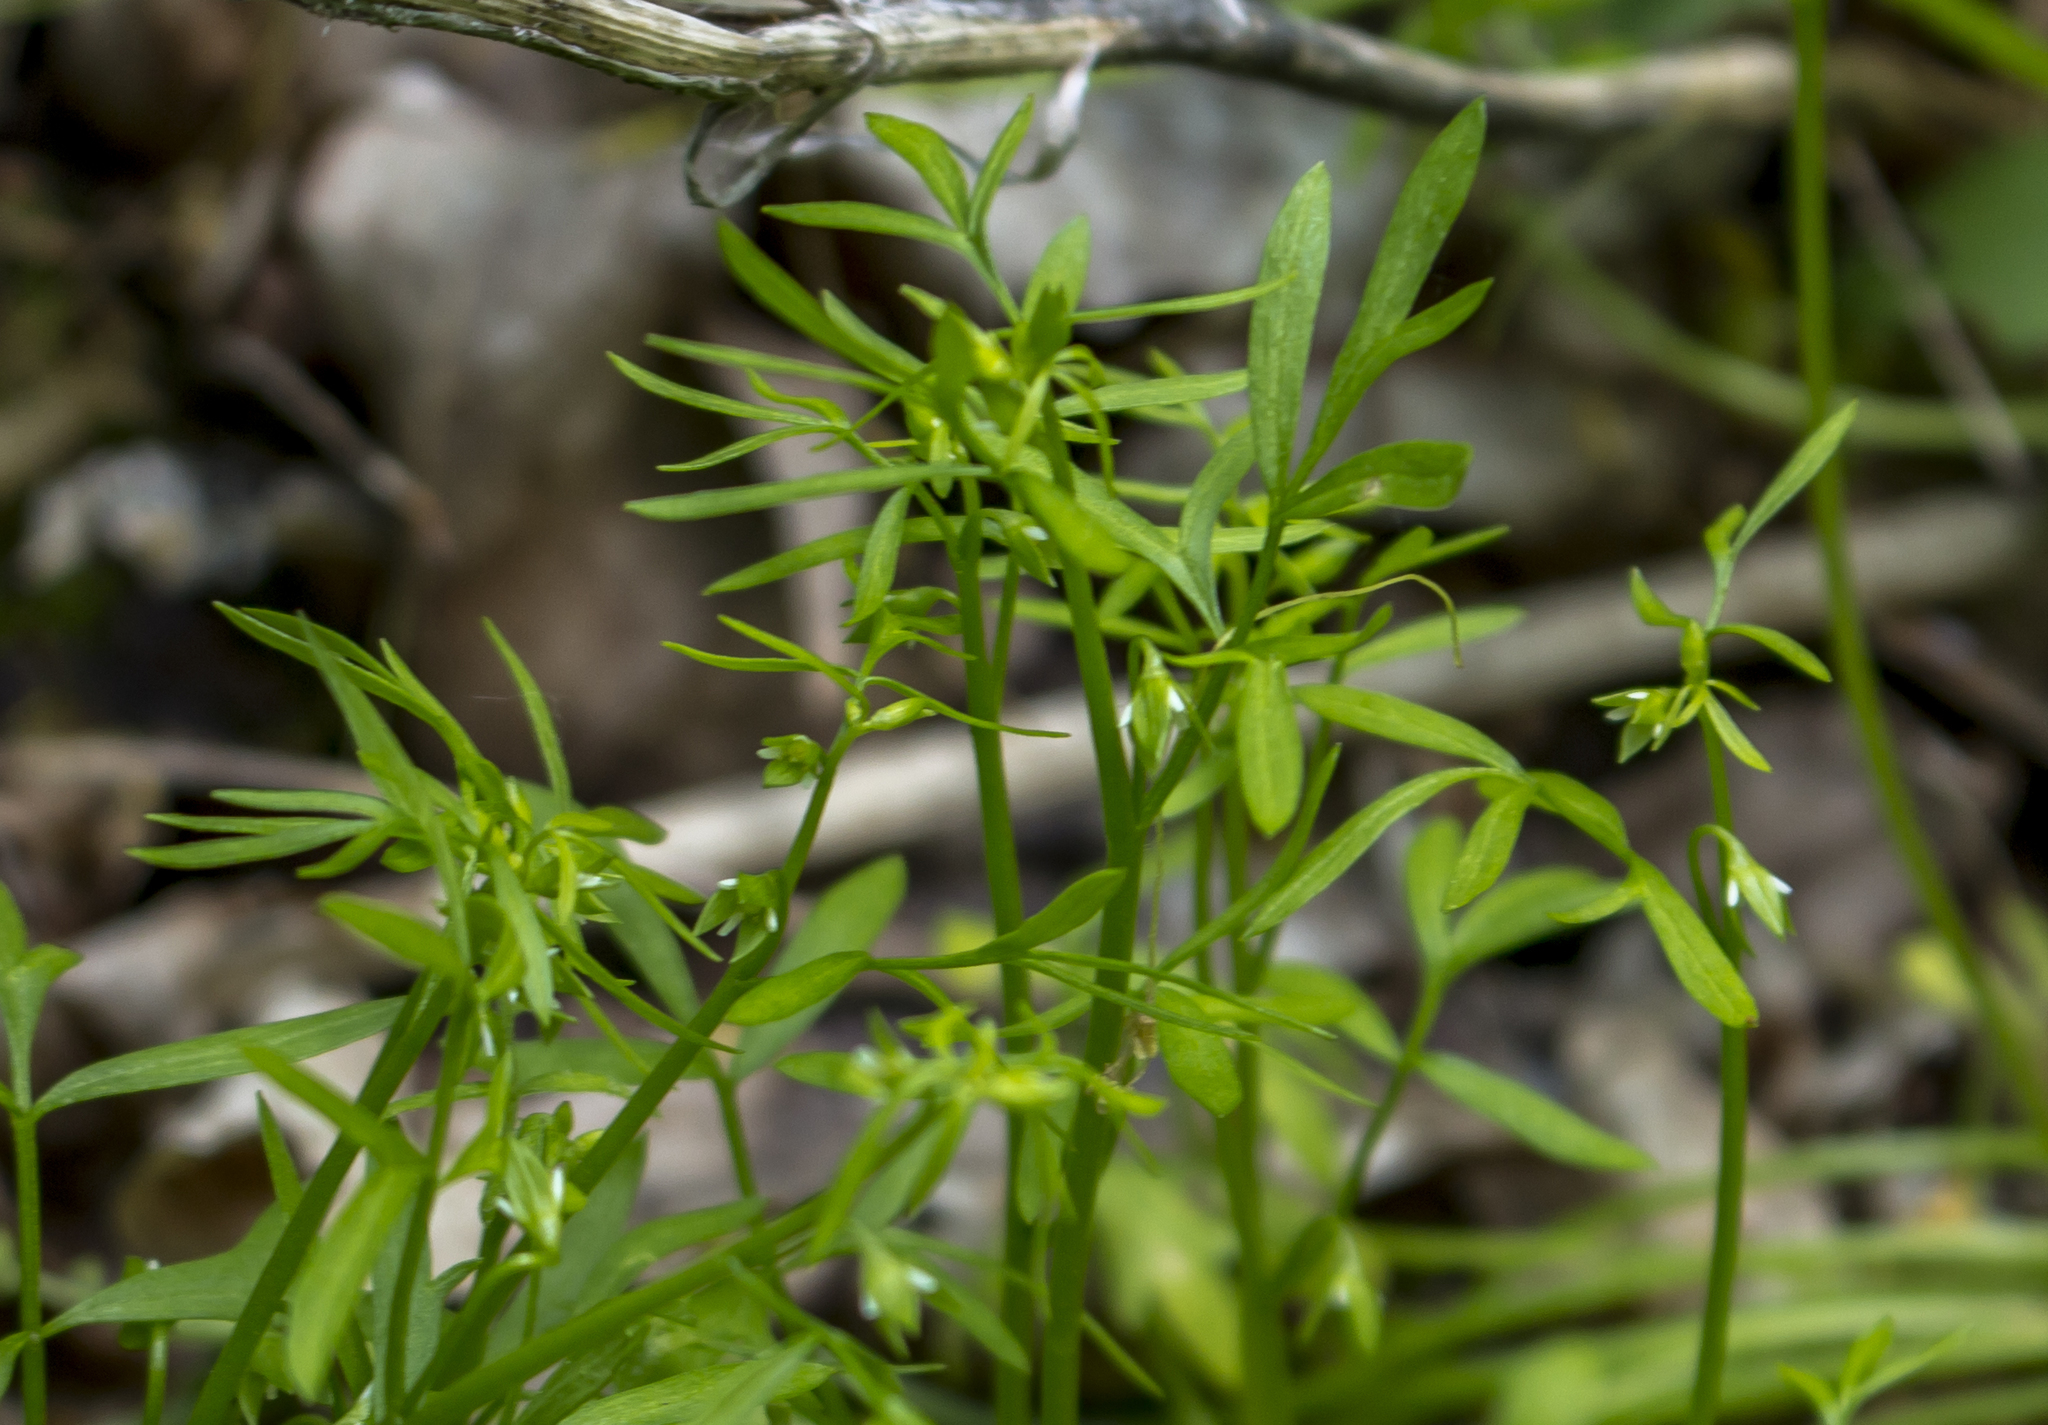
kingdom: Plantae
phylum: Tracheophyta
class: Magnoliopsida
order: Brassicales
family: Limnanthaceae
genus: Floerkea
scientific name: Floerkea proserpinacoides
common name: False mermaid
